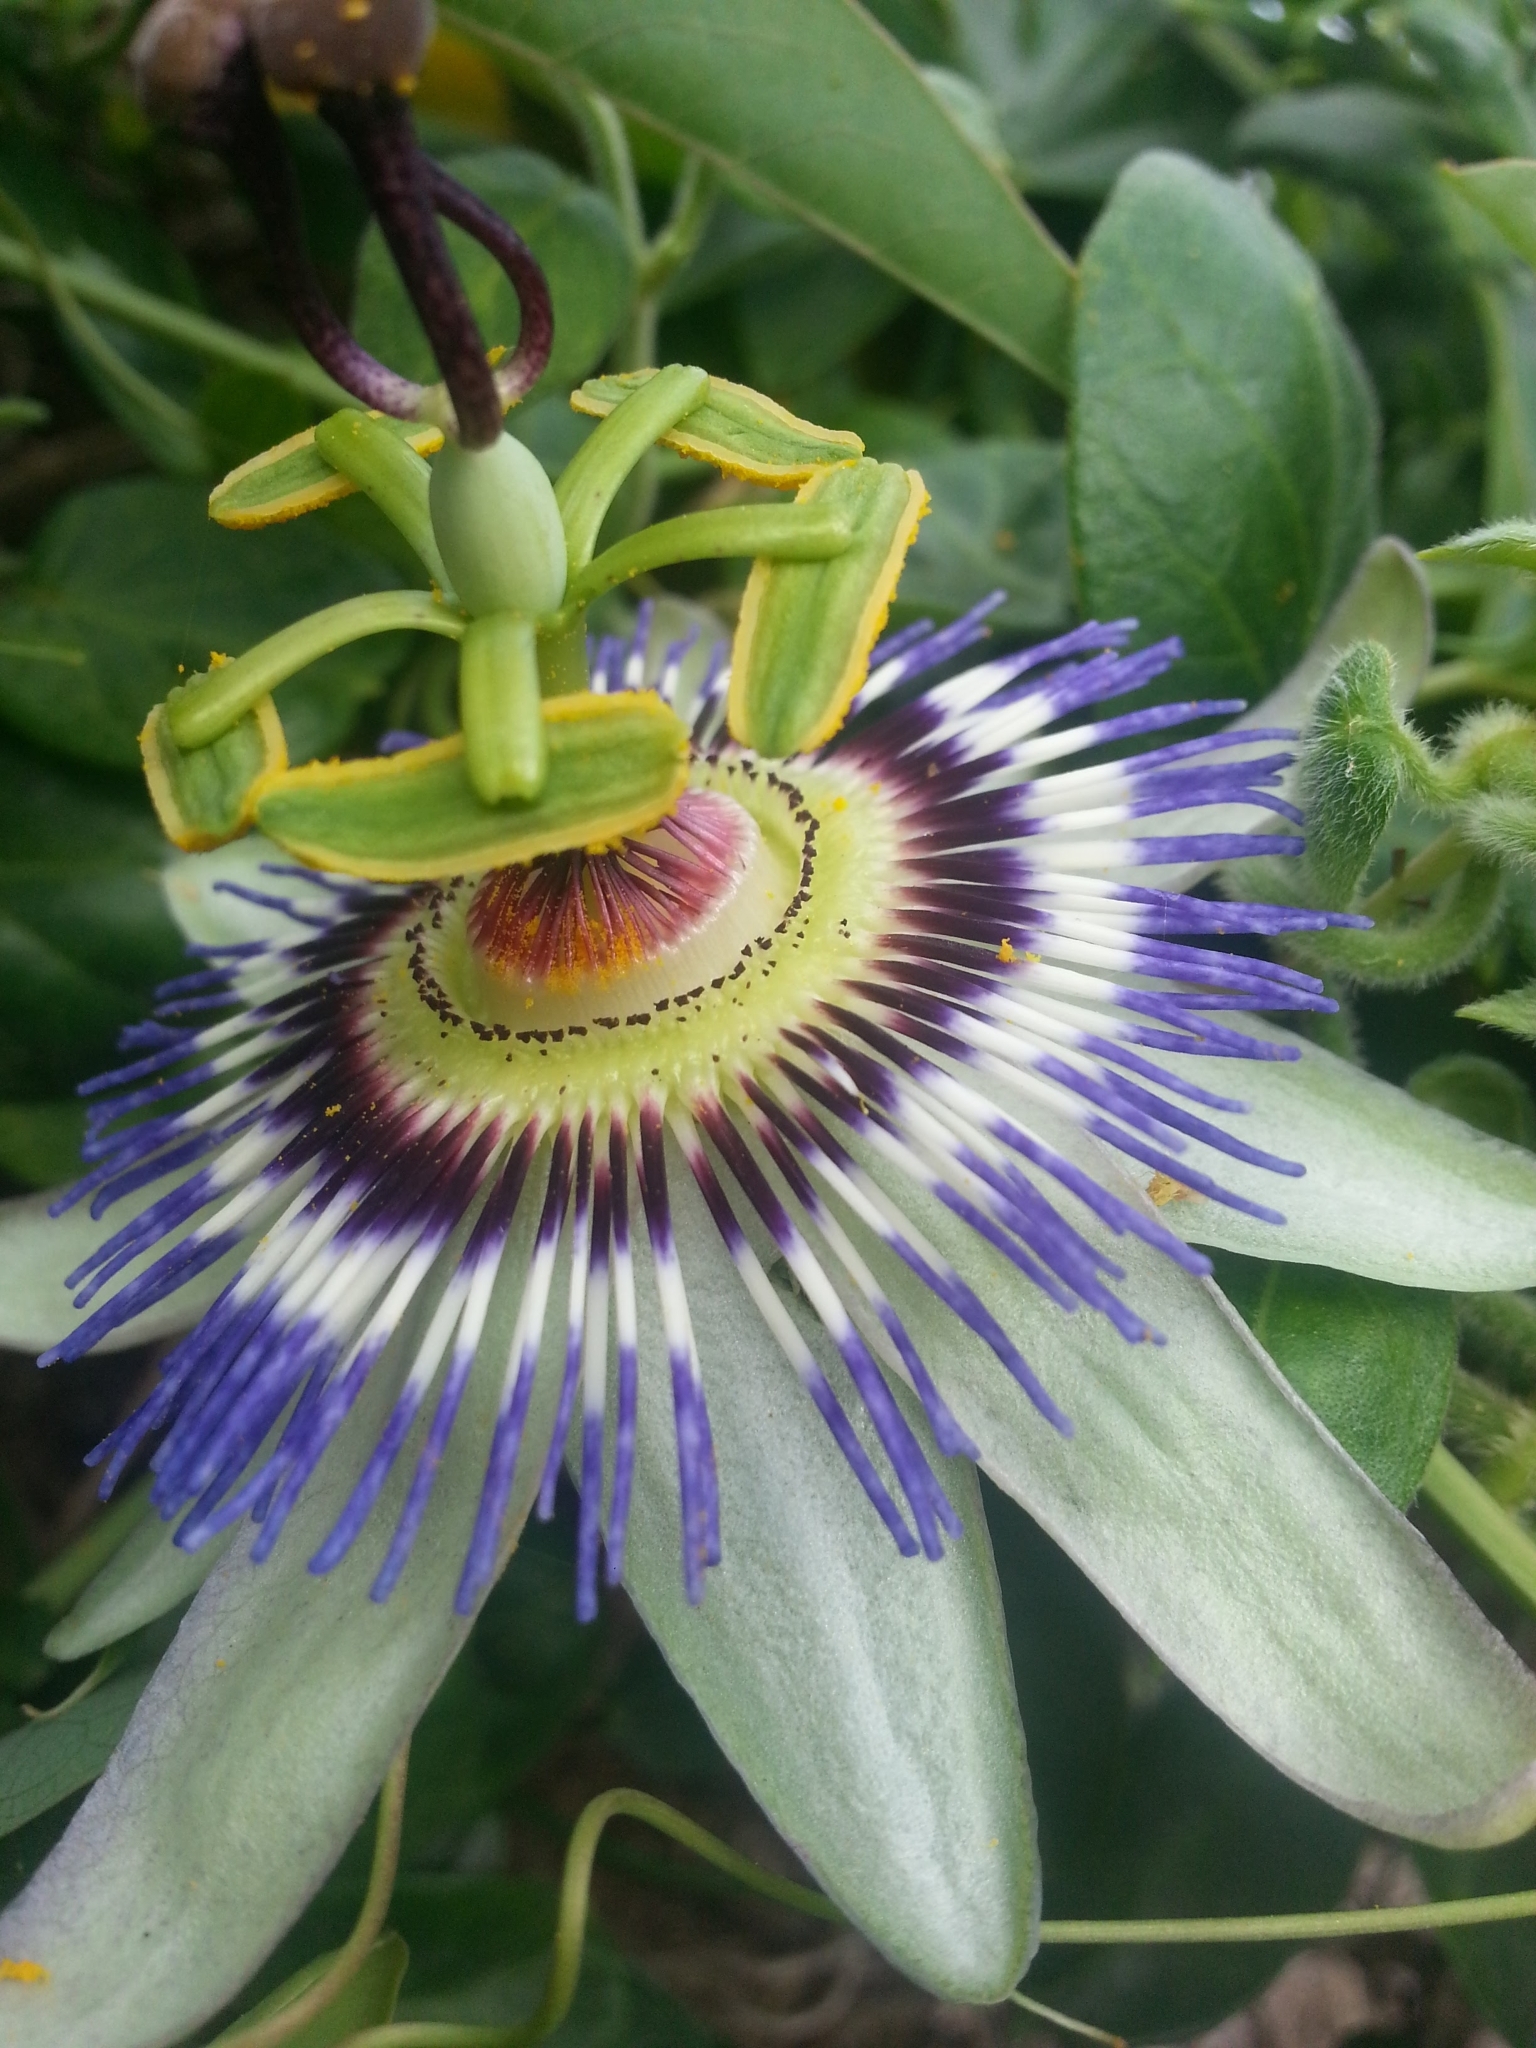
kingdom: Plantae
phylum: Tracheophyta
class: Magnoliopsida
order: Malpighiales
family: Passifloraceae
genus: Passiflora
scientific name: Passiflora caerulea
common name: Blue passionflower
